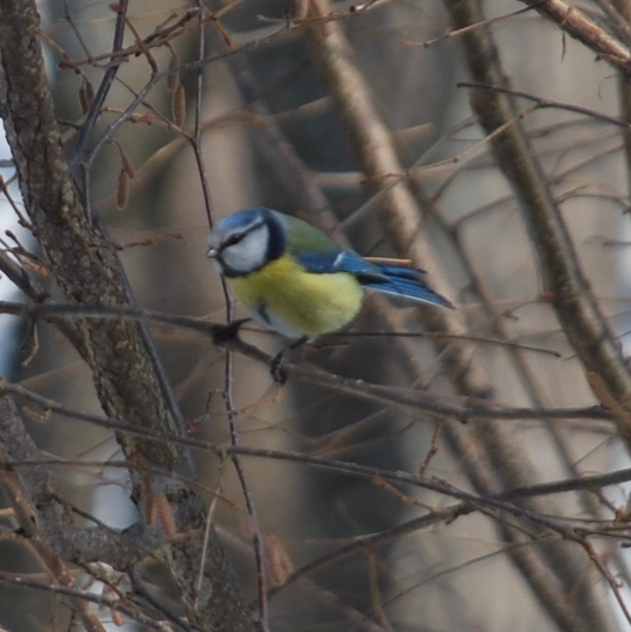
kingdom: Animalia
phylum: Chordata
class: Aves
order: Passeriformes
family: Paridae
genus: Cyanistes
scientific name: Cyanistes caeruleus
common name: Eurasian blue tit
